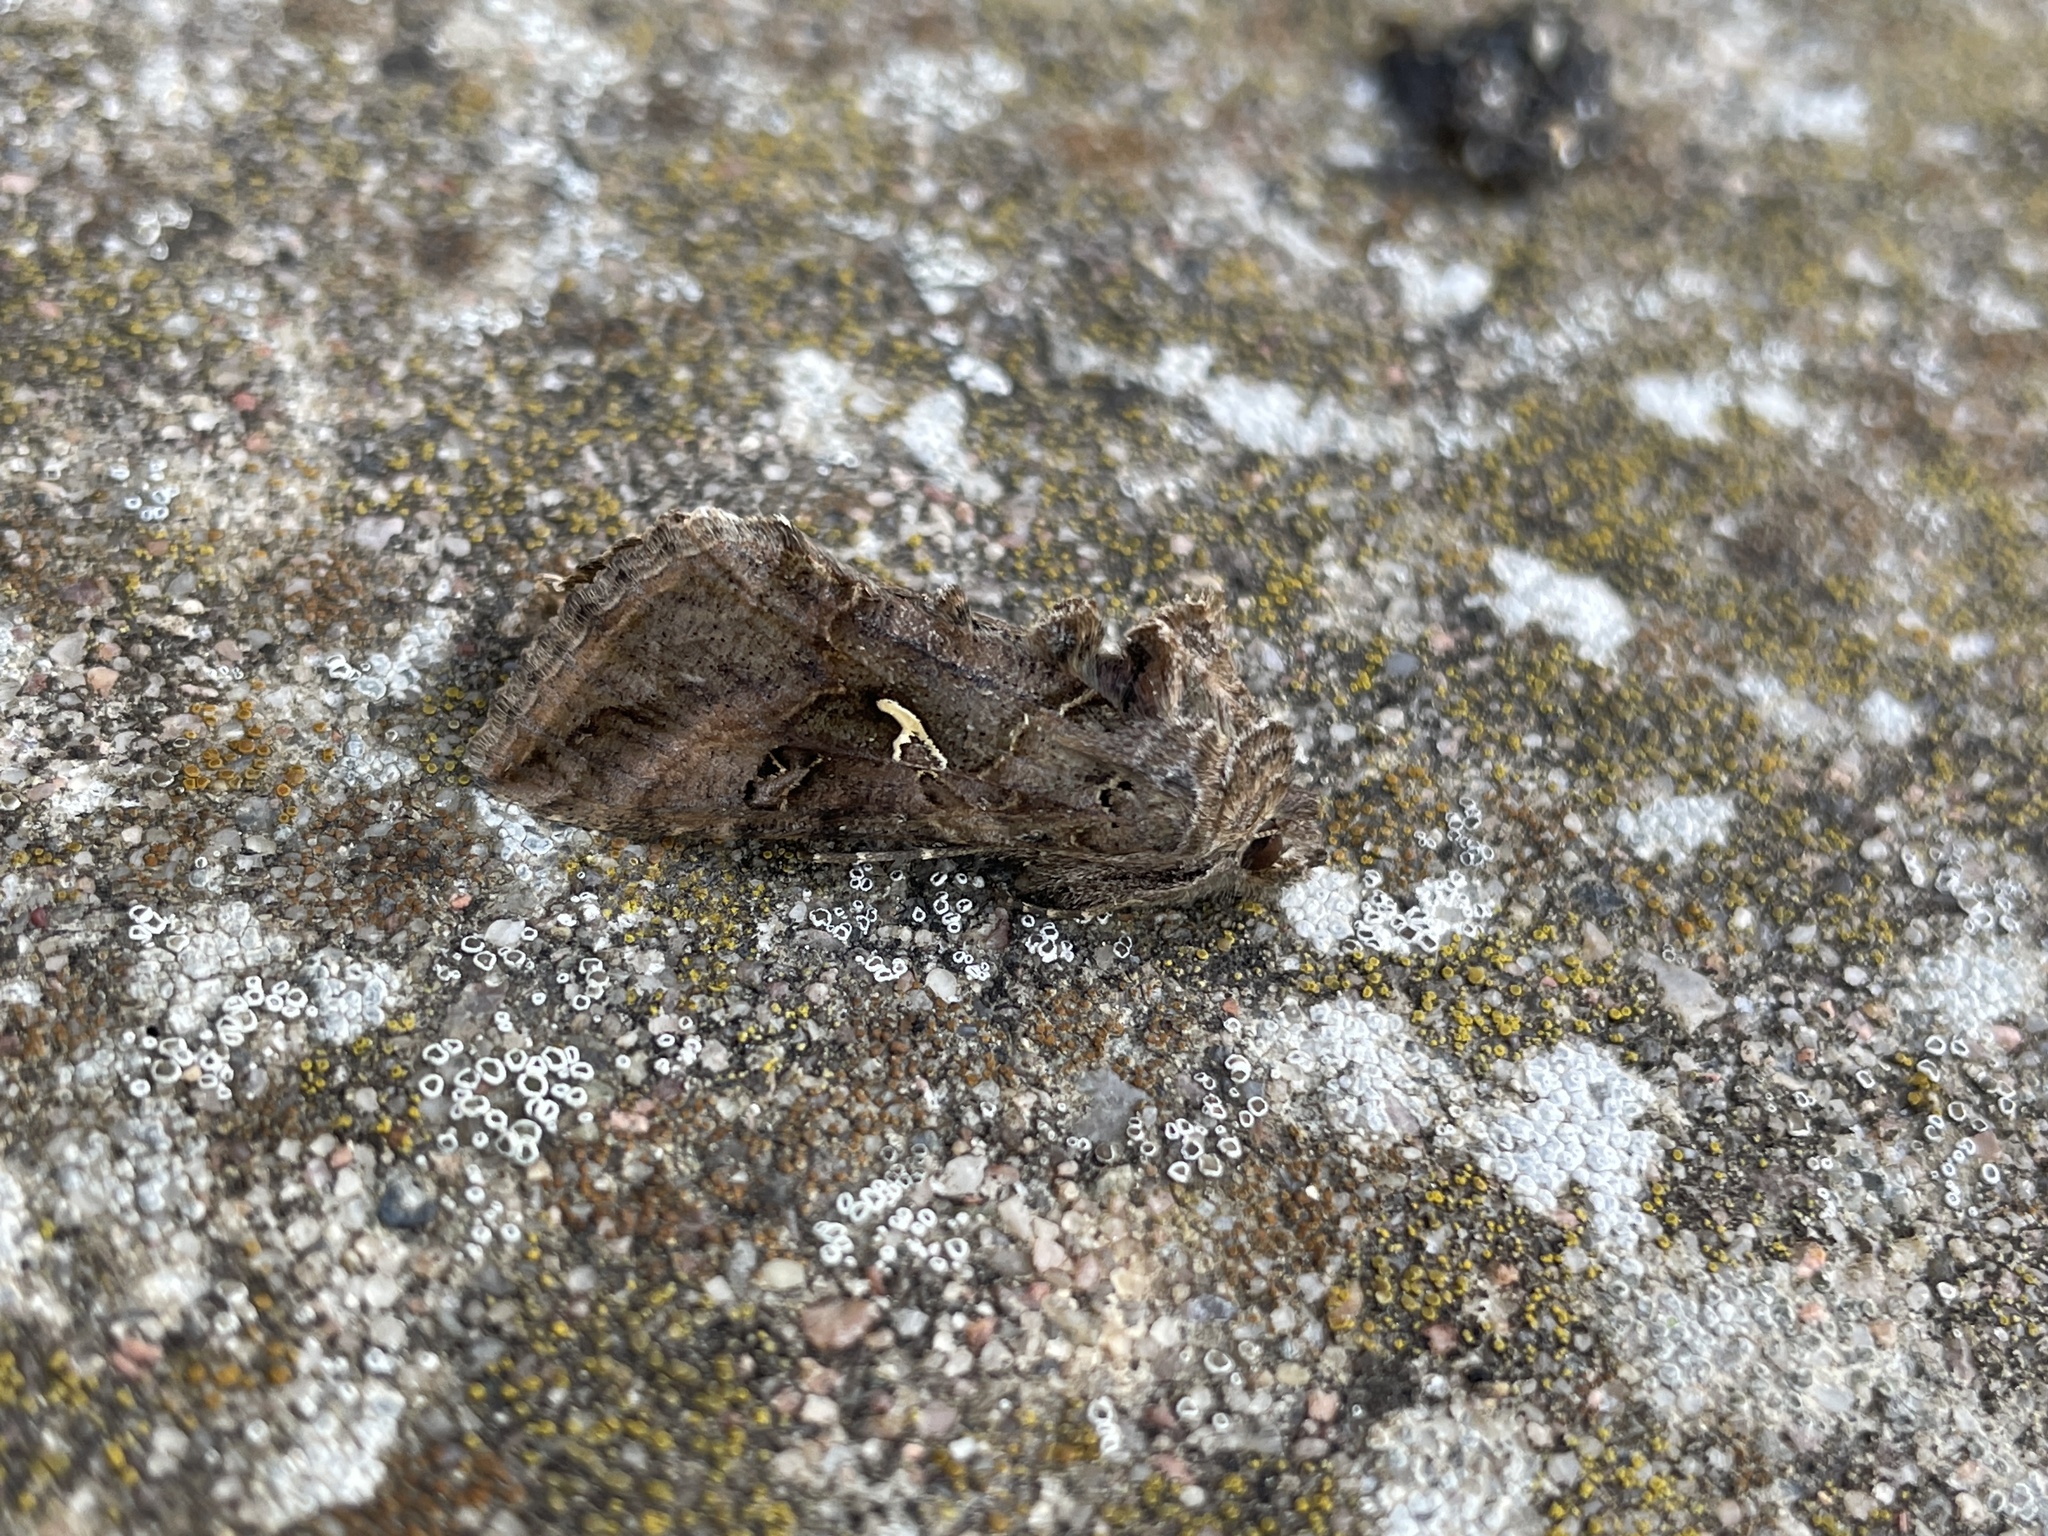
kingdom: Animalia
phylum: Arthropoda
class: Insecta
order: Lepidoptera
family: Noctuidae
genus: Autographa
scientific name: Autographa gamma
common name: Silver y
